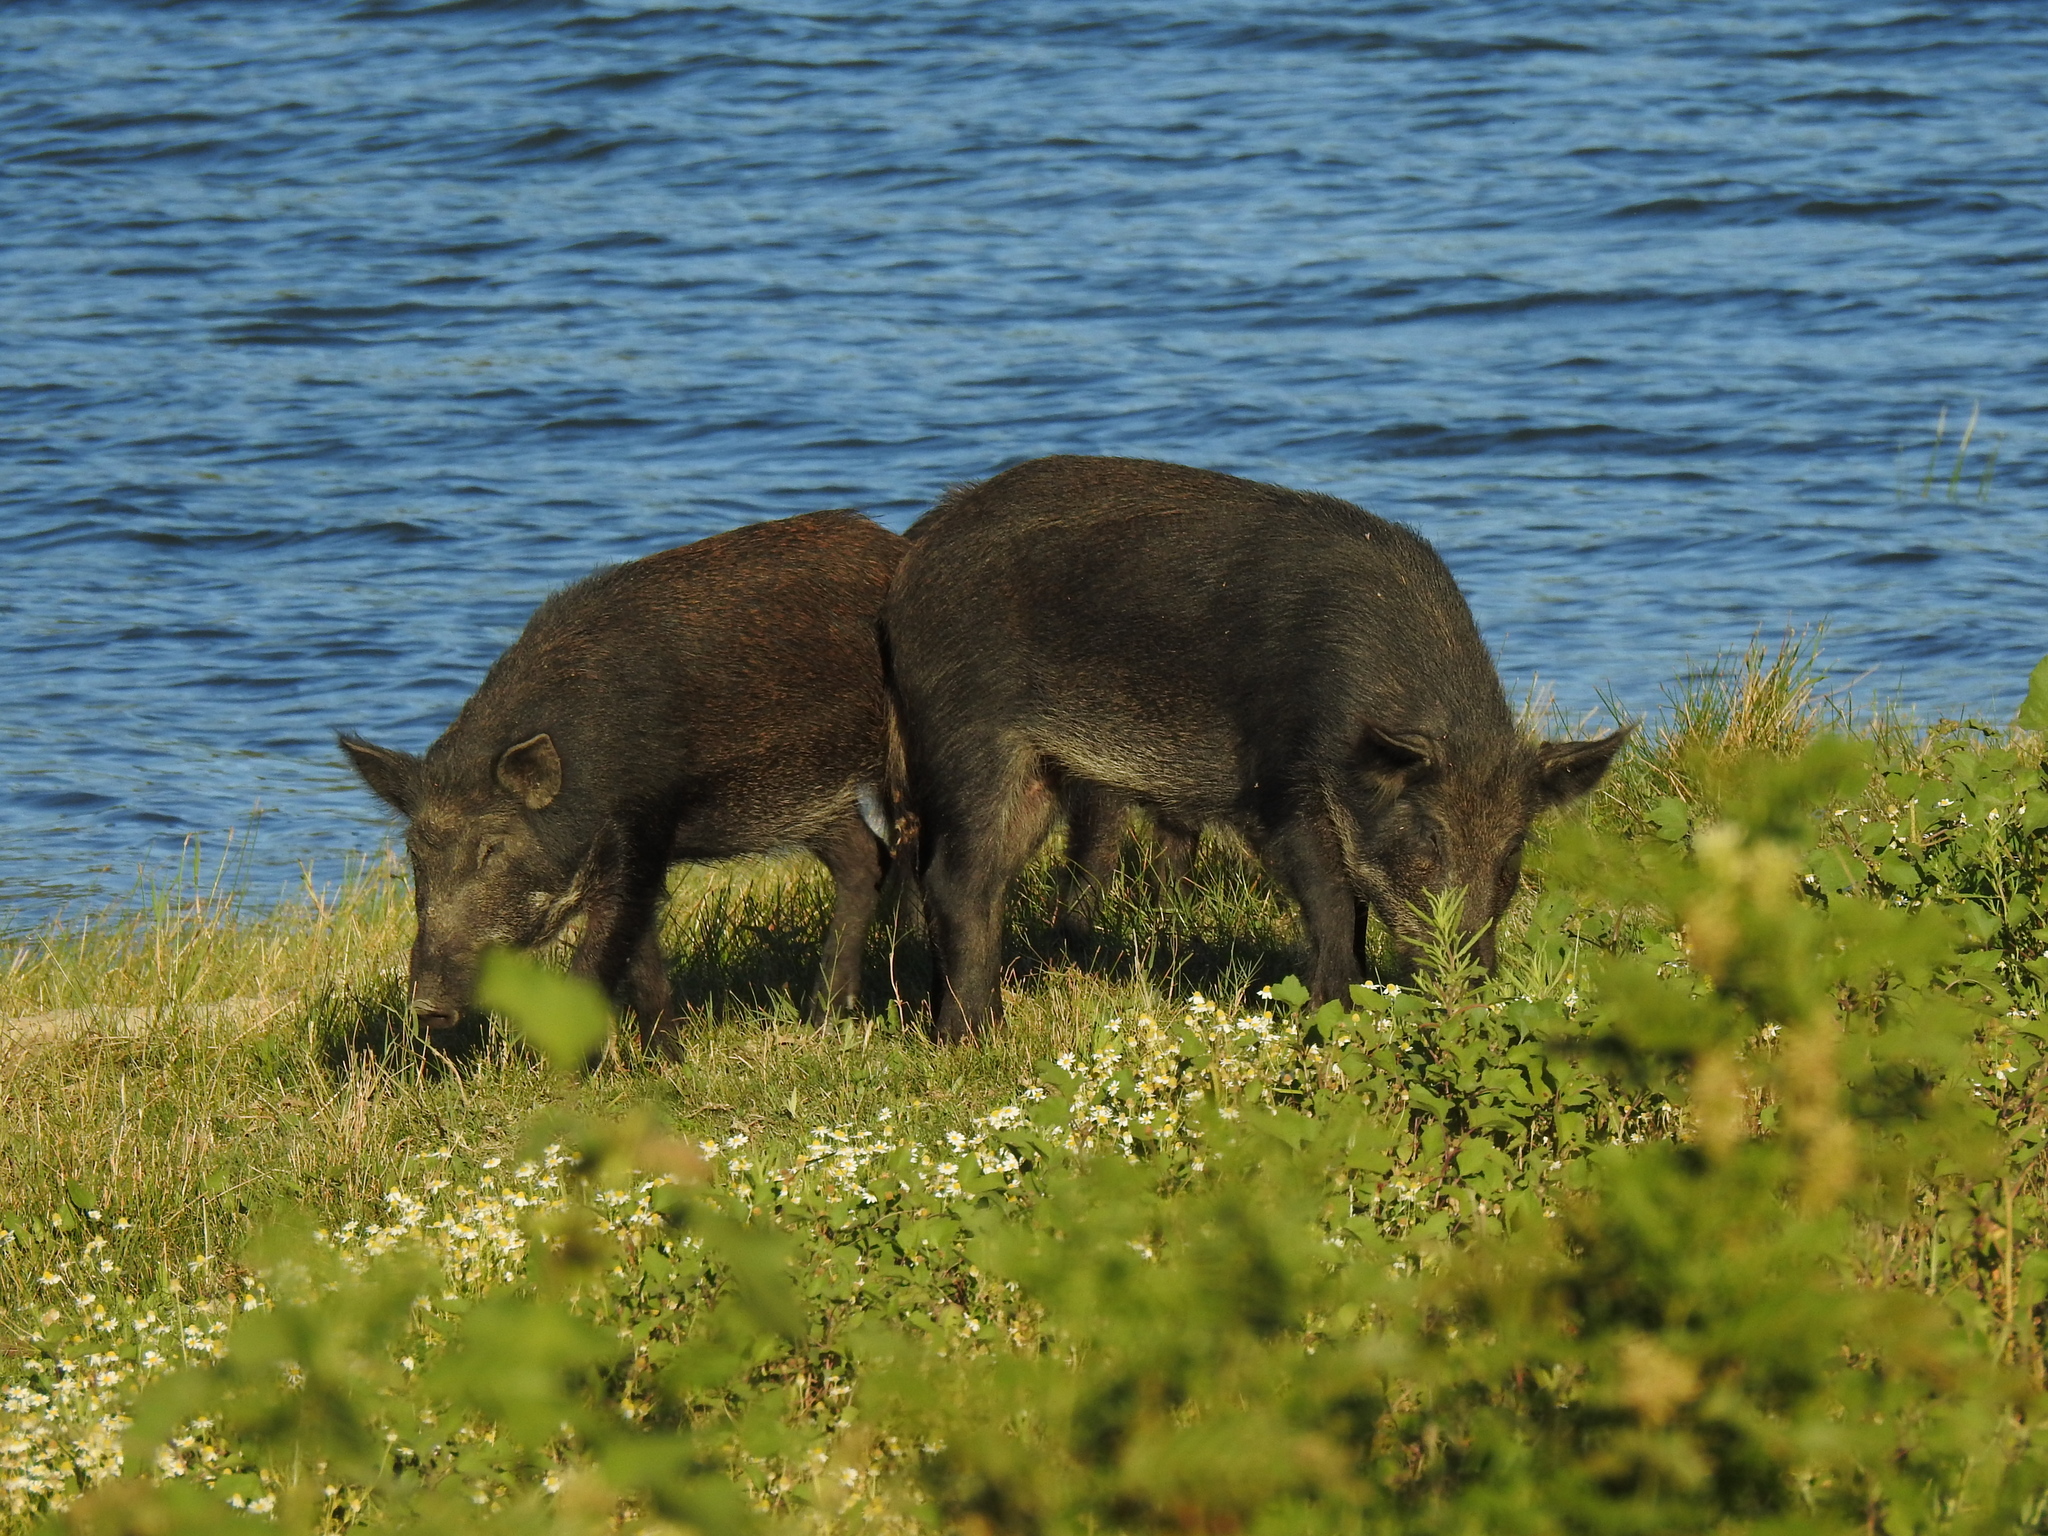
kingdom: Animalia
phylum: Chordata
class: Mammalia
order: Artiodactyla
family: Suidae
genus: Sus
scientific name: Sus scrofa
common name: Wild boar
